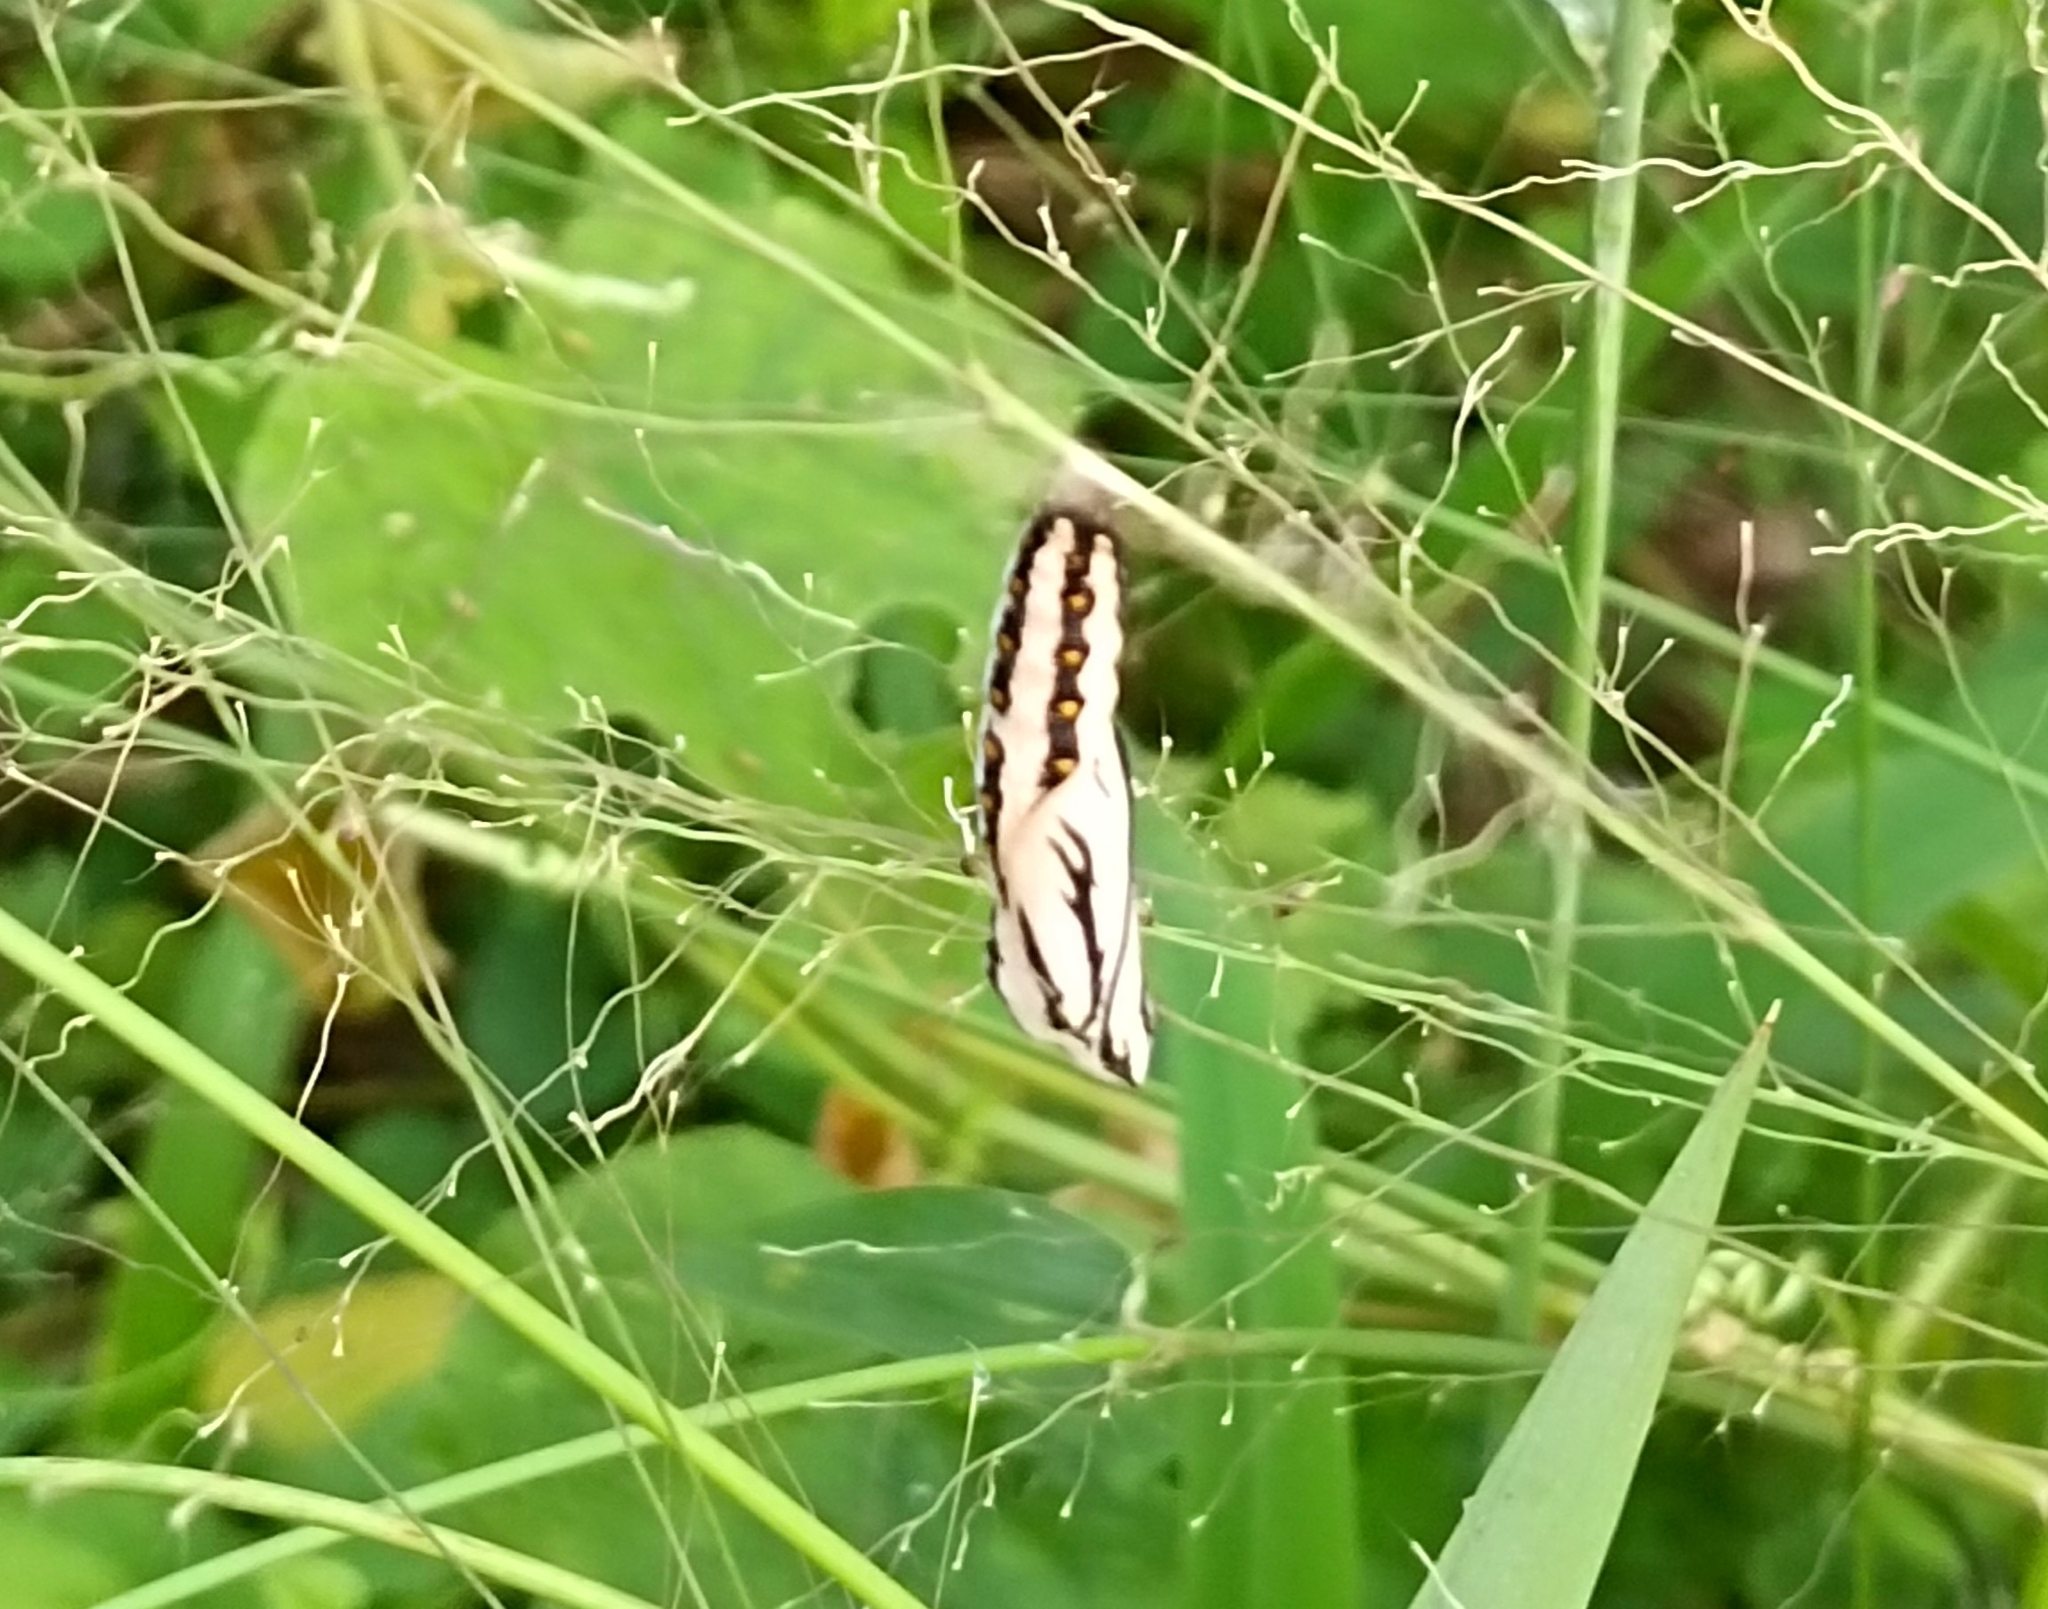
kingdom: Animalia
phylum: Arthropoda
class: Insecta
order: Lepidoptera
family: Nymphalidae
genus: Acraea
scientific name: Acraea terpsicore
